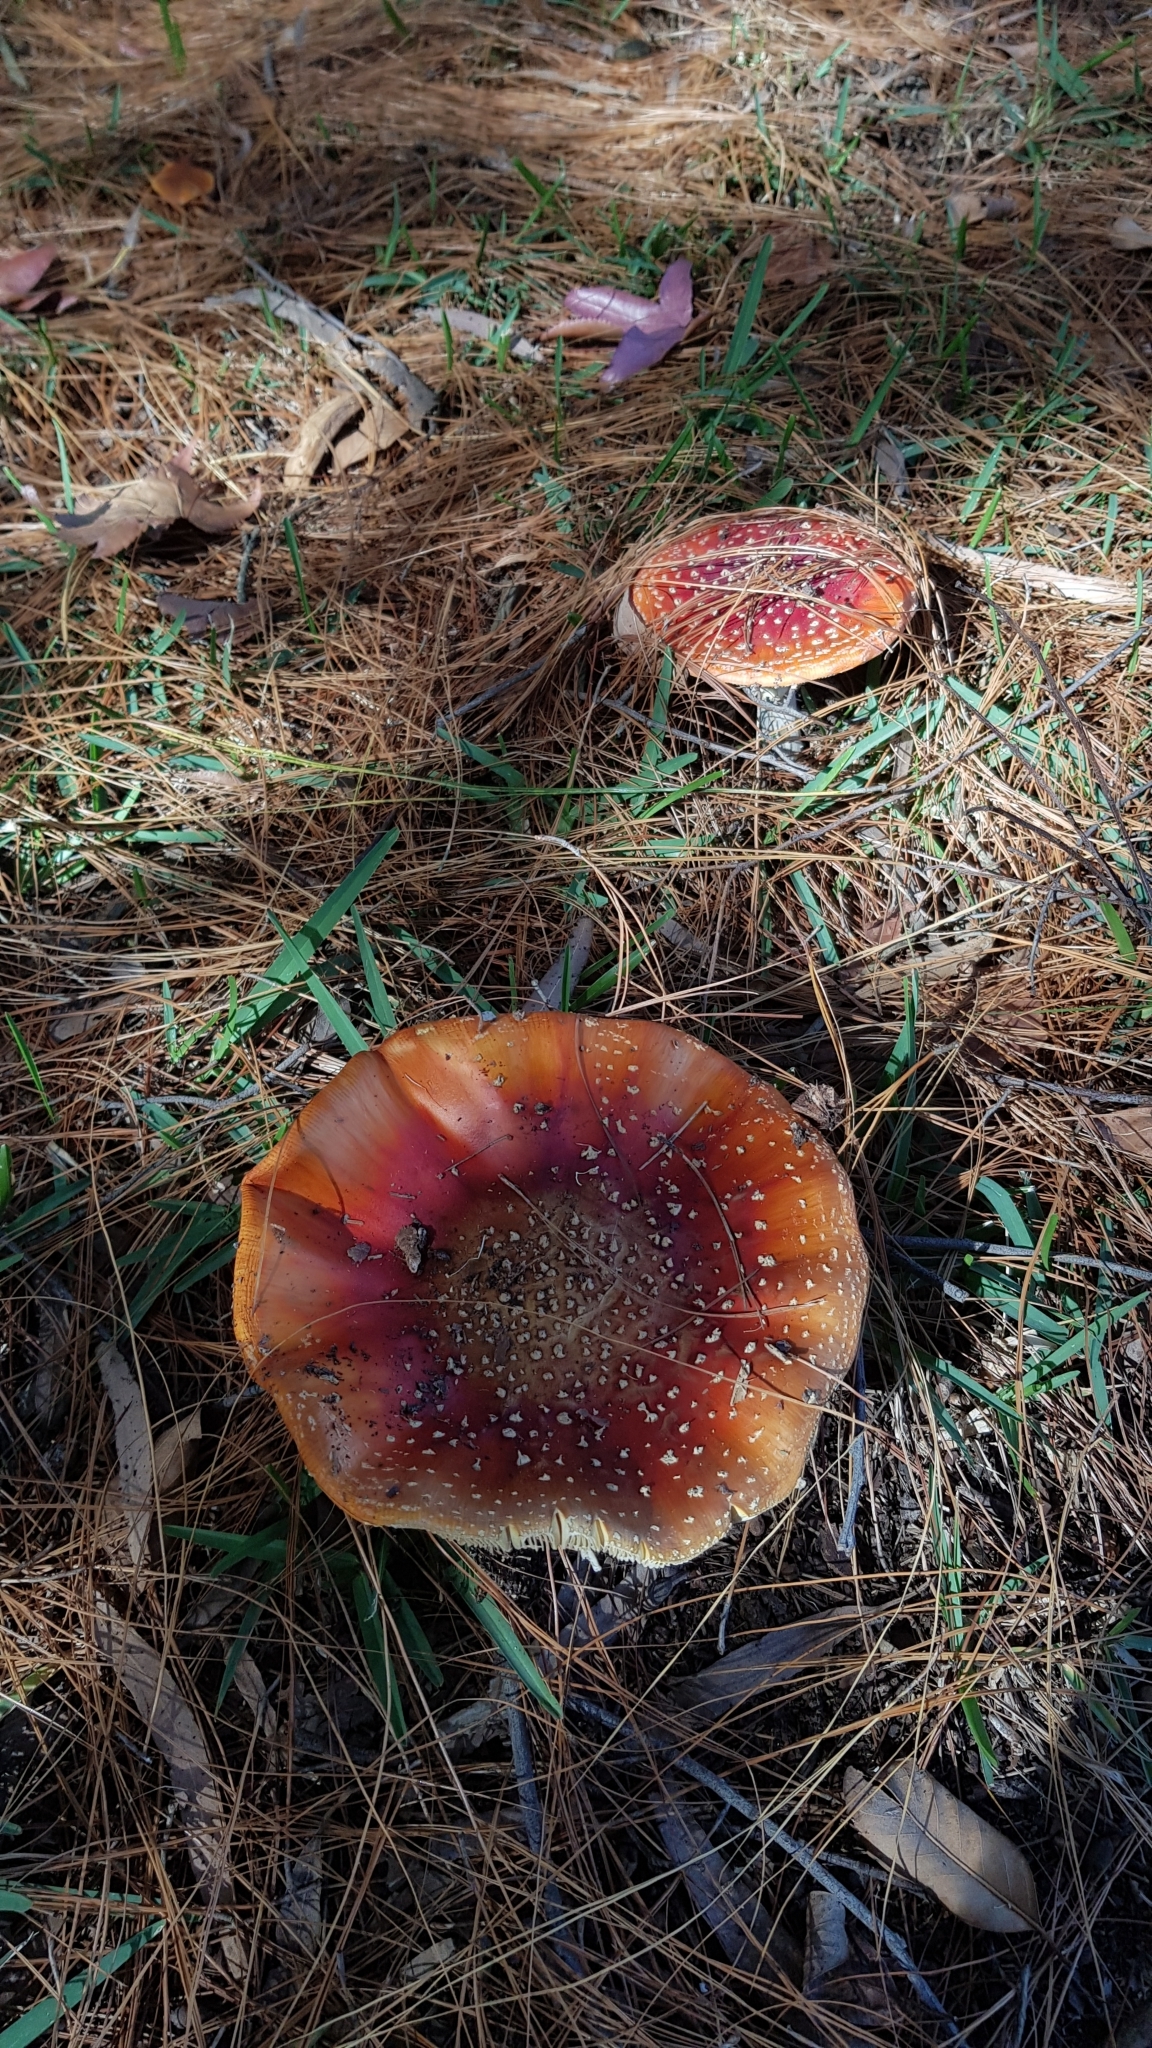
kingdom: Fungi
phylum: Basidiomycota
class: Agaricomycetes
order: Agaricales
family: Amanitaceae
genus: Amanita
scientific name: Amanita muscaria
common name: Fly agaric
